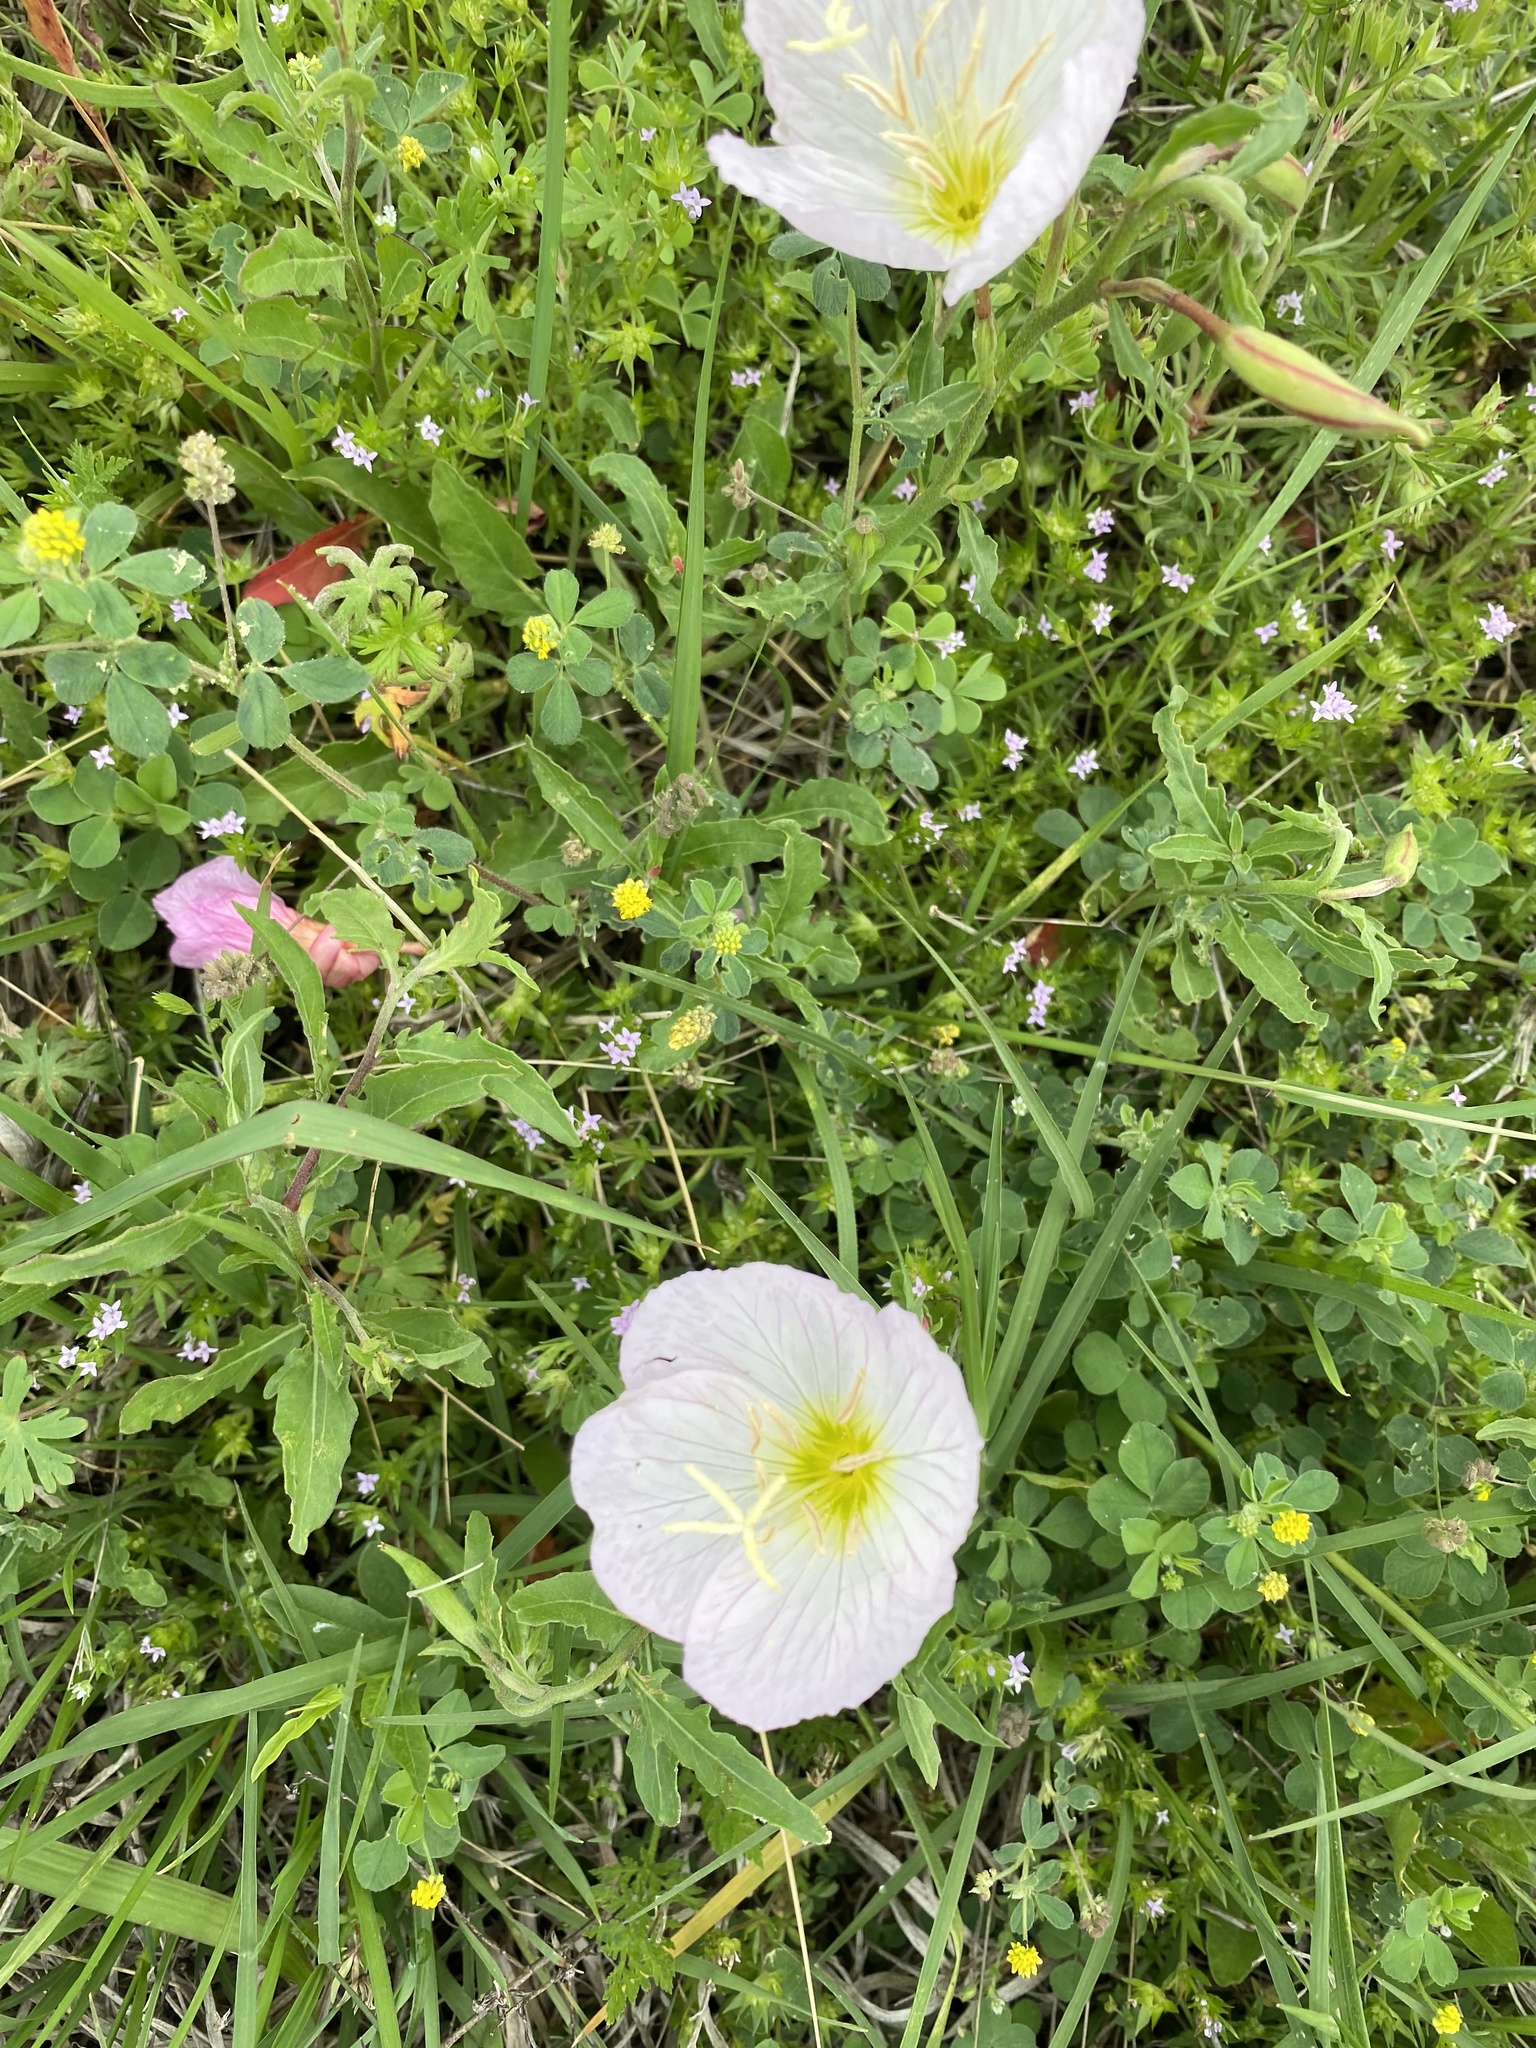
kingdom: Plantae
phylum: Tracheophyta
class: Magnoliopsida
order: Myrtales
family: Onagraceae
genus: Oenothera
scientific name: Oenothera speciosa
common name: White evening-primrose
